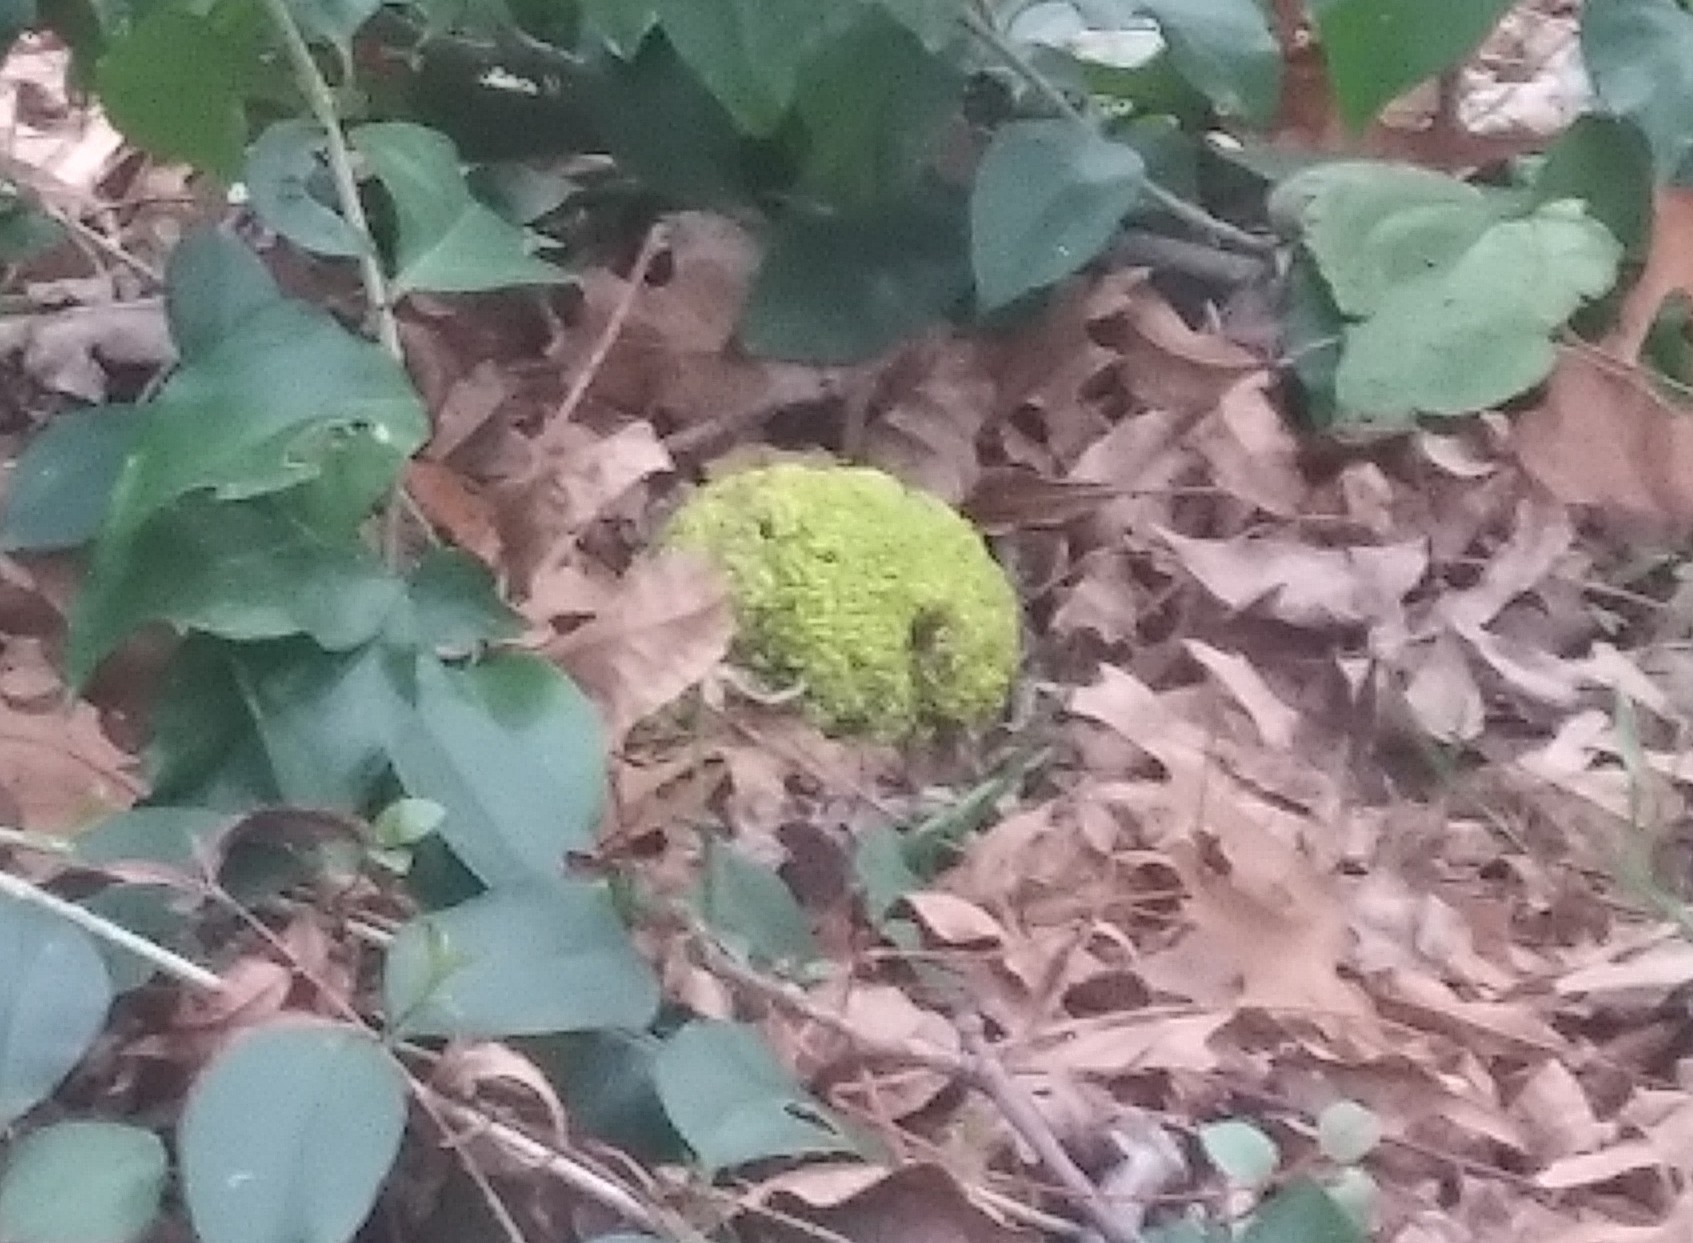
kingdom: Plantae
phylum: Tracheophyta
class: Magnoliopsida
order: Rosales
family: Moraceae
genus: Maclura
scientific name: Maclura pomifera
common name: Osage-orange
